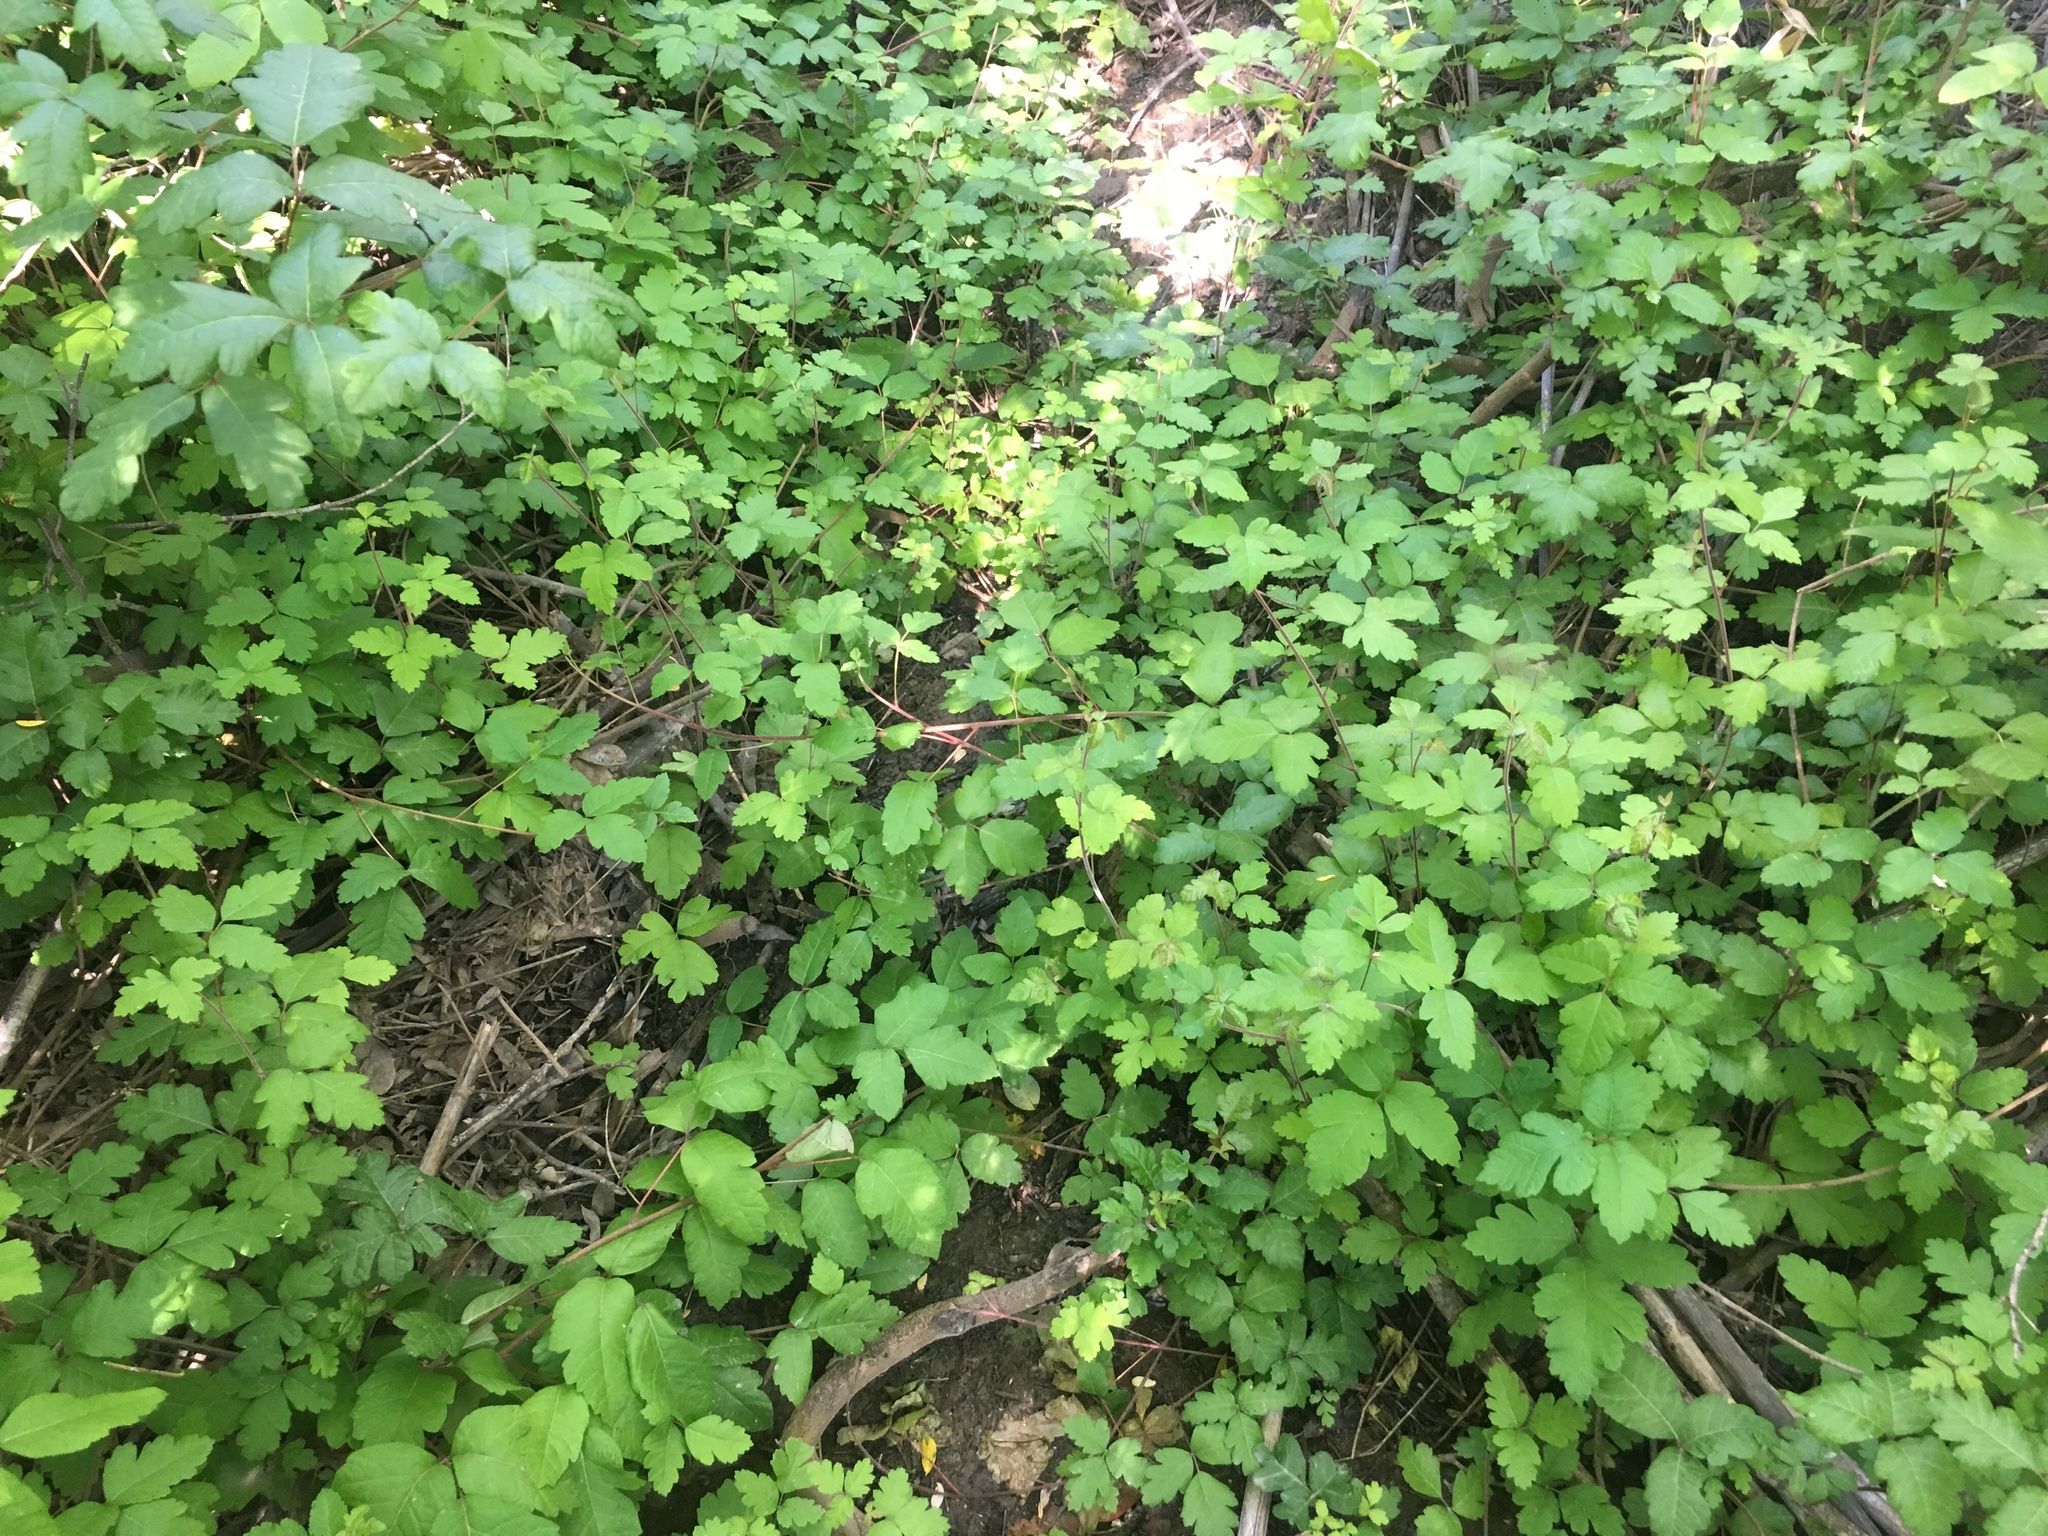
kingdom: Plantae
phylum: Tracheophyta
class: Magnoliopsida
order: Sapindales
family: Anacardiaceae
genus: Toxicodendron
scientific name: Toxicodendron diversilobum
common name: Pacific poison-oak
